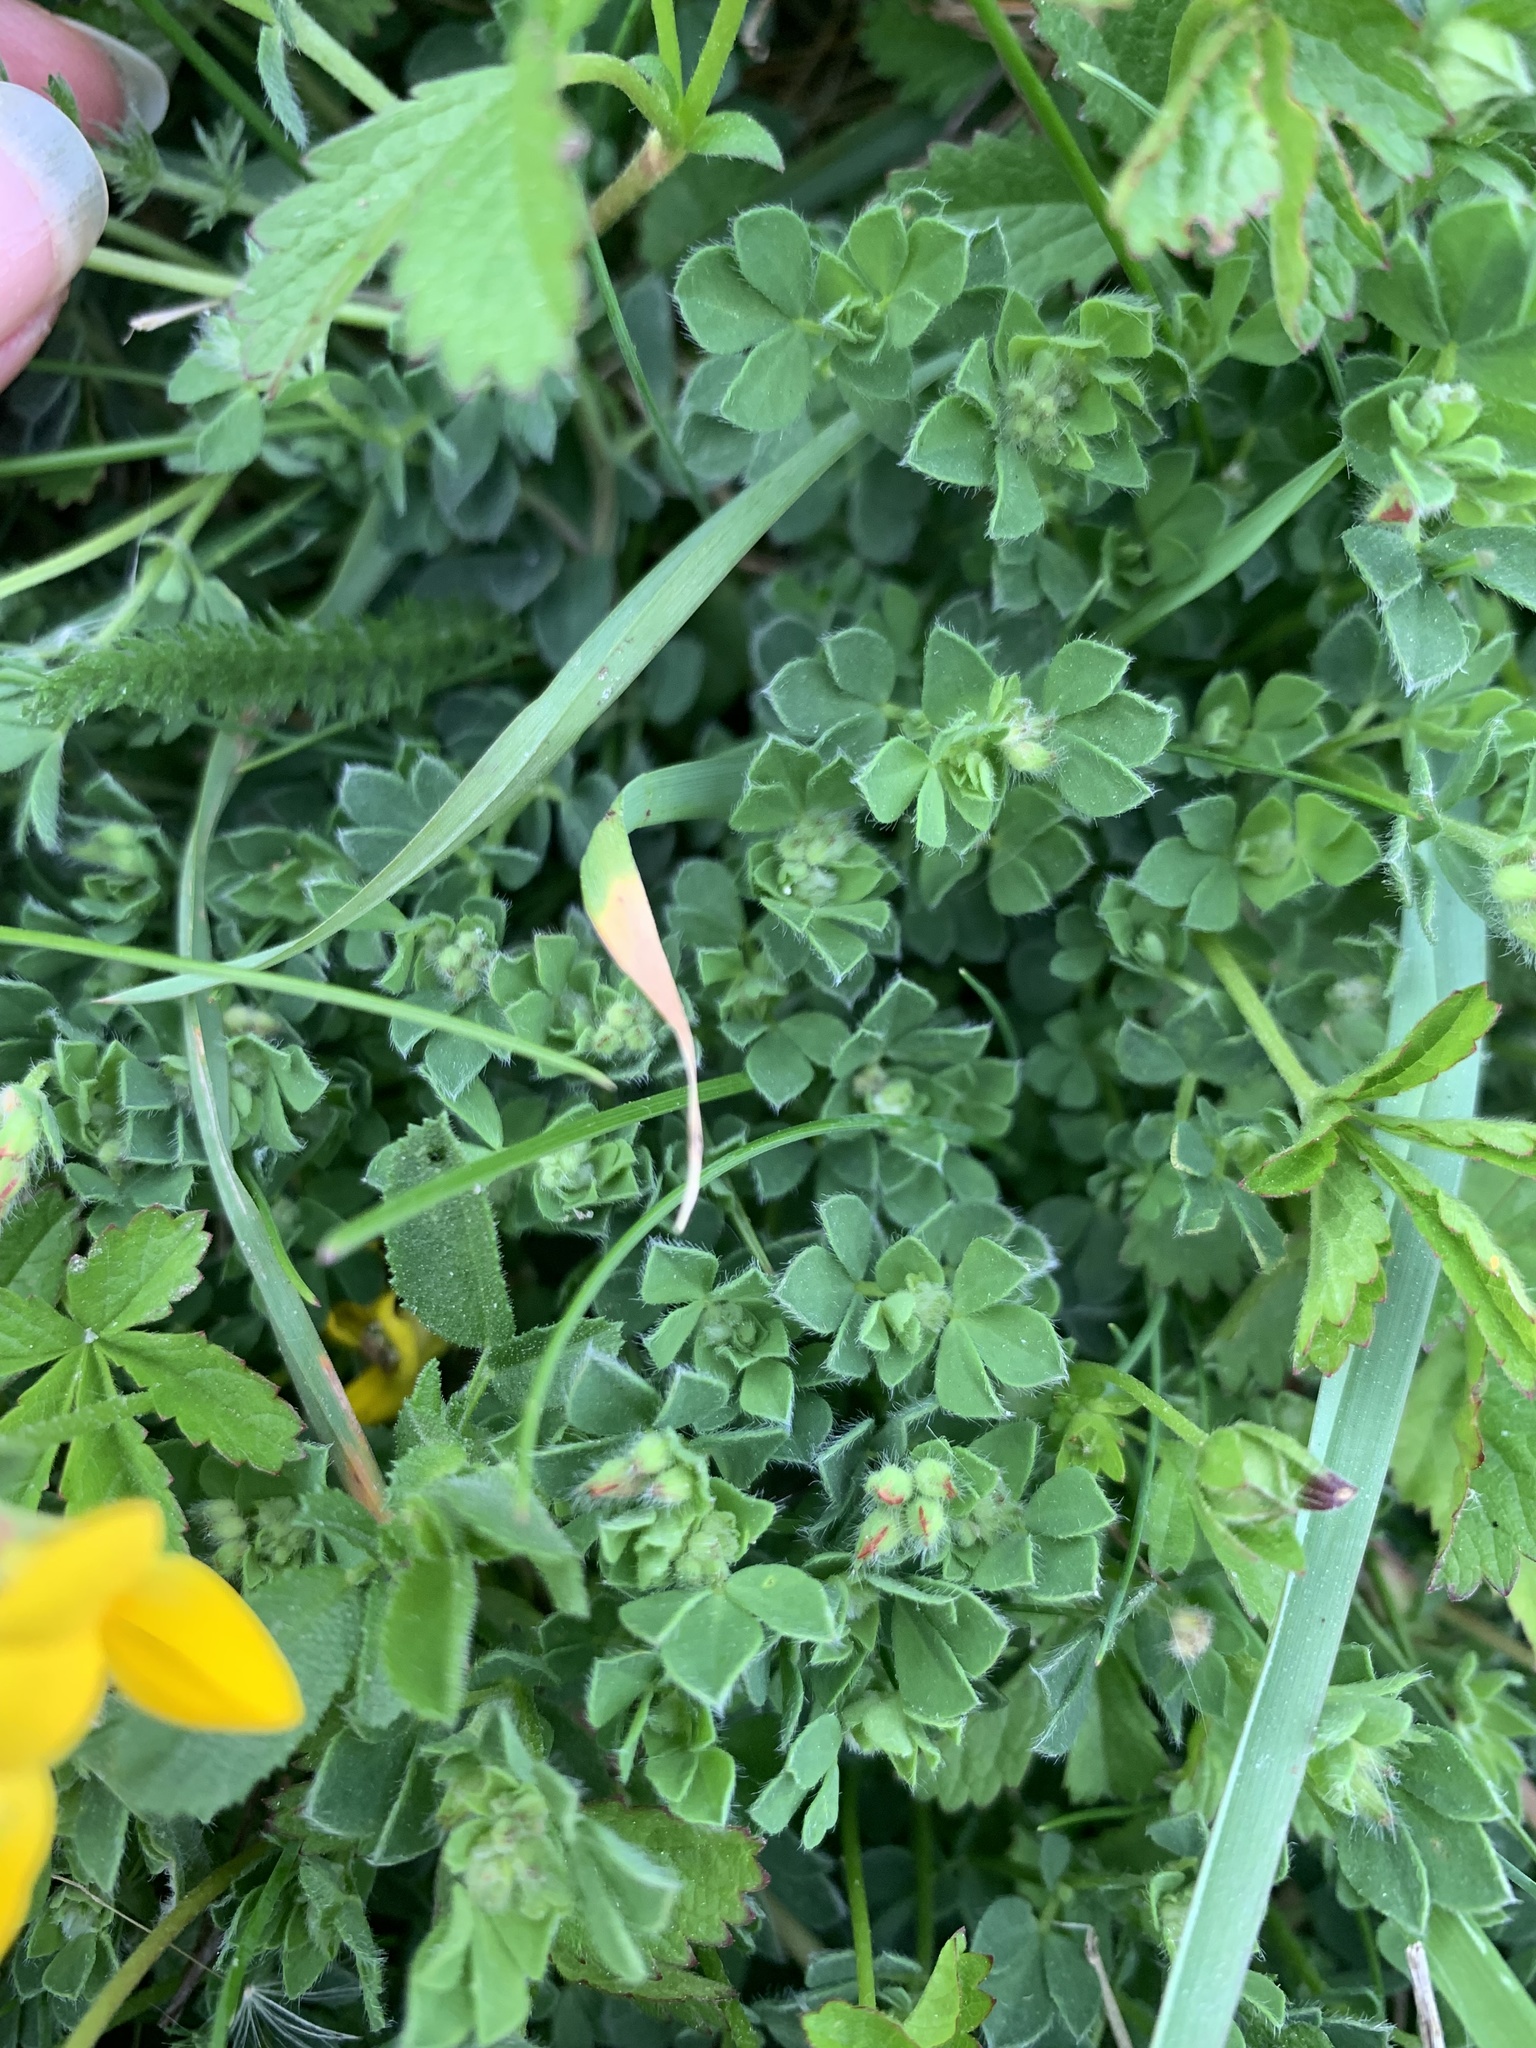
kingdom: Plantae
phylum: Tracheophyta
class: Magnoliopsida
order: Fabales
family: Fabaceae
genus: Lotus
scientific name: Lotus corniculatus
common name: Common bird's-foot-trefoil
